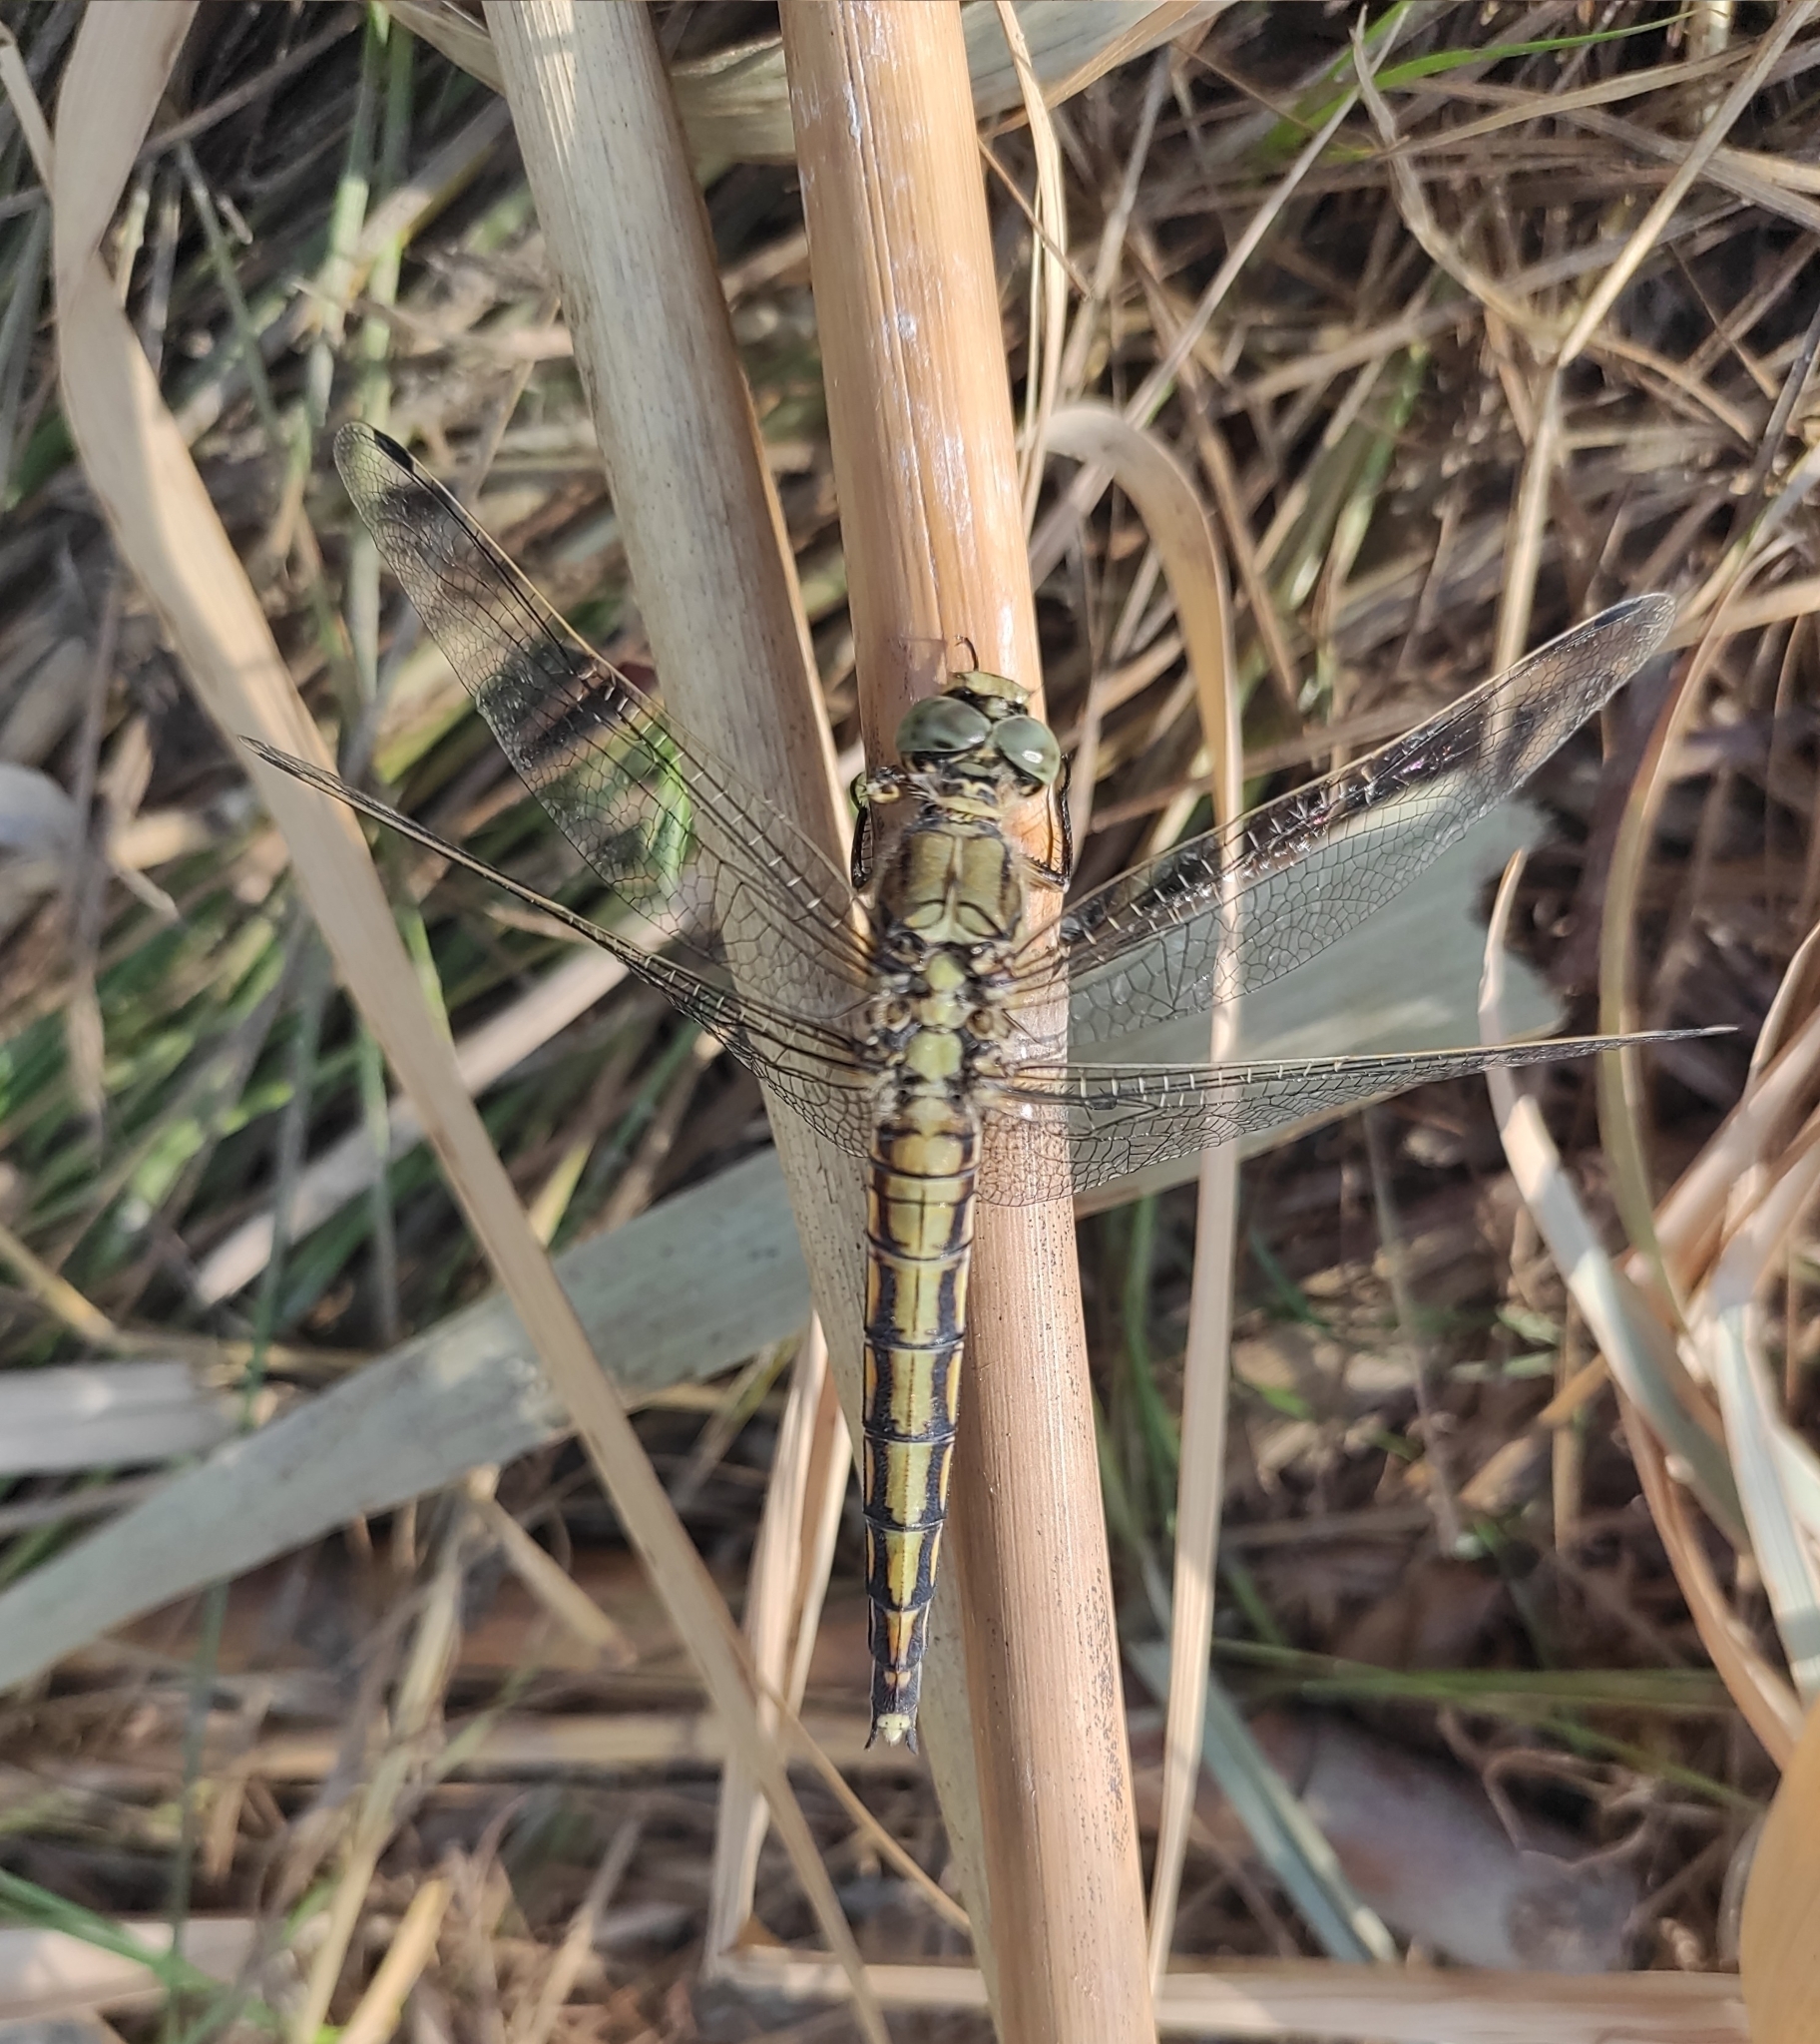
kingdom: Animalia
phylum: Arthropoda
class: Insecta
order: Odonata
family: Libellulidae
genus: Orthetrum
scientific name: Orthetrum cancellatum
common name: Black-tailed skimmer
